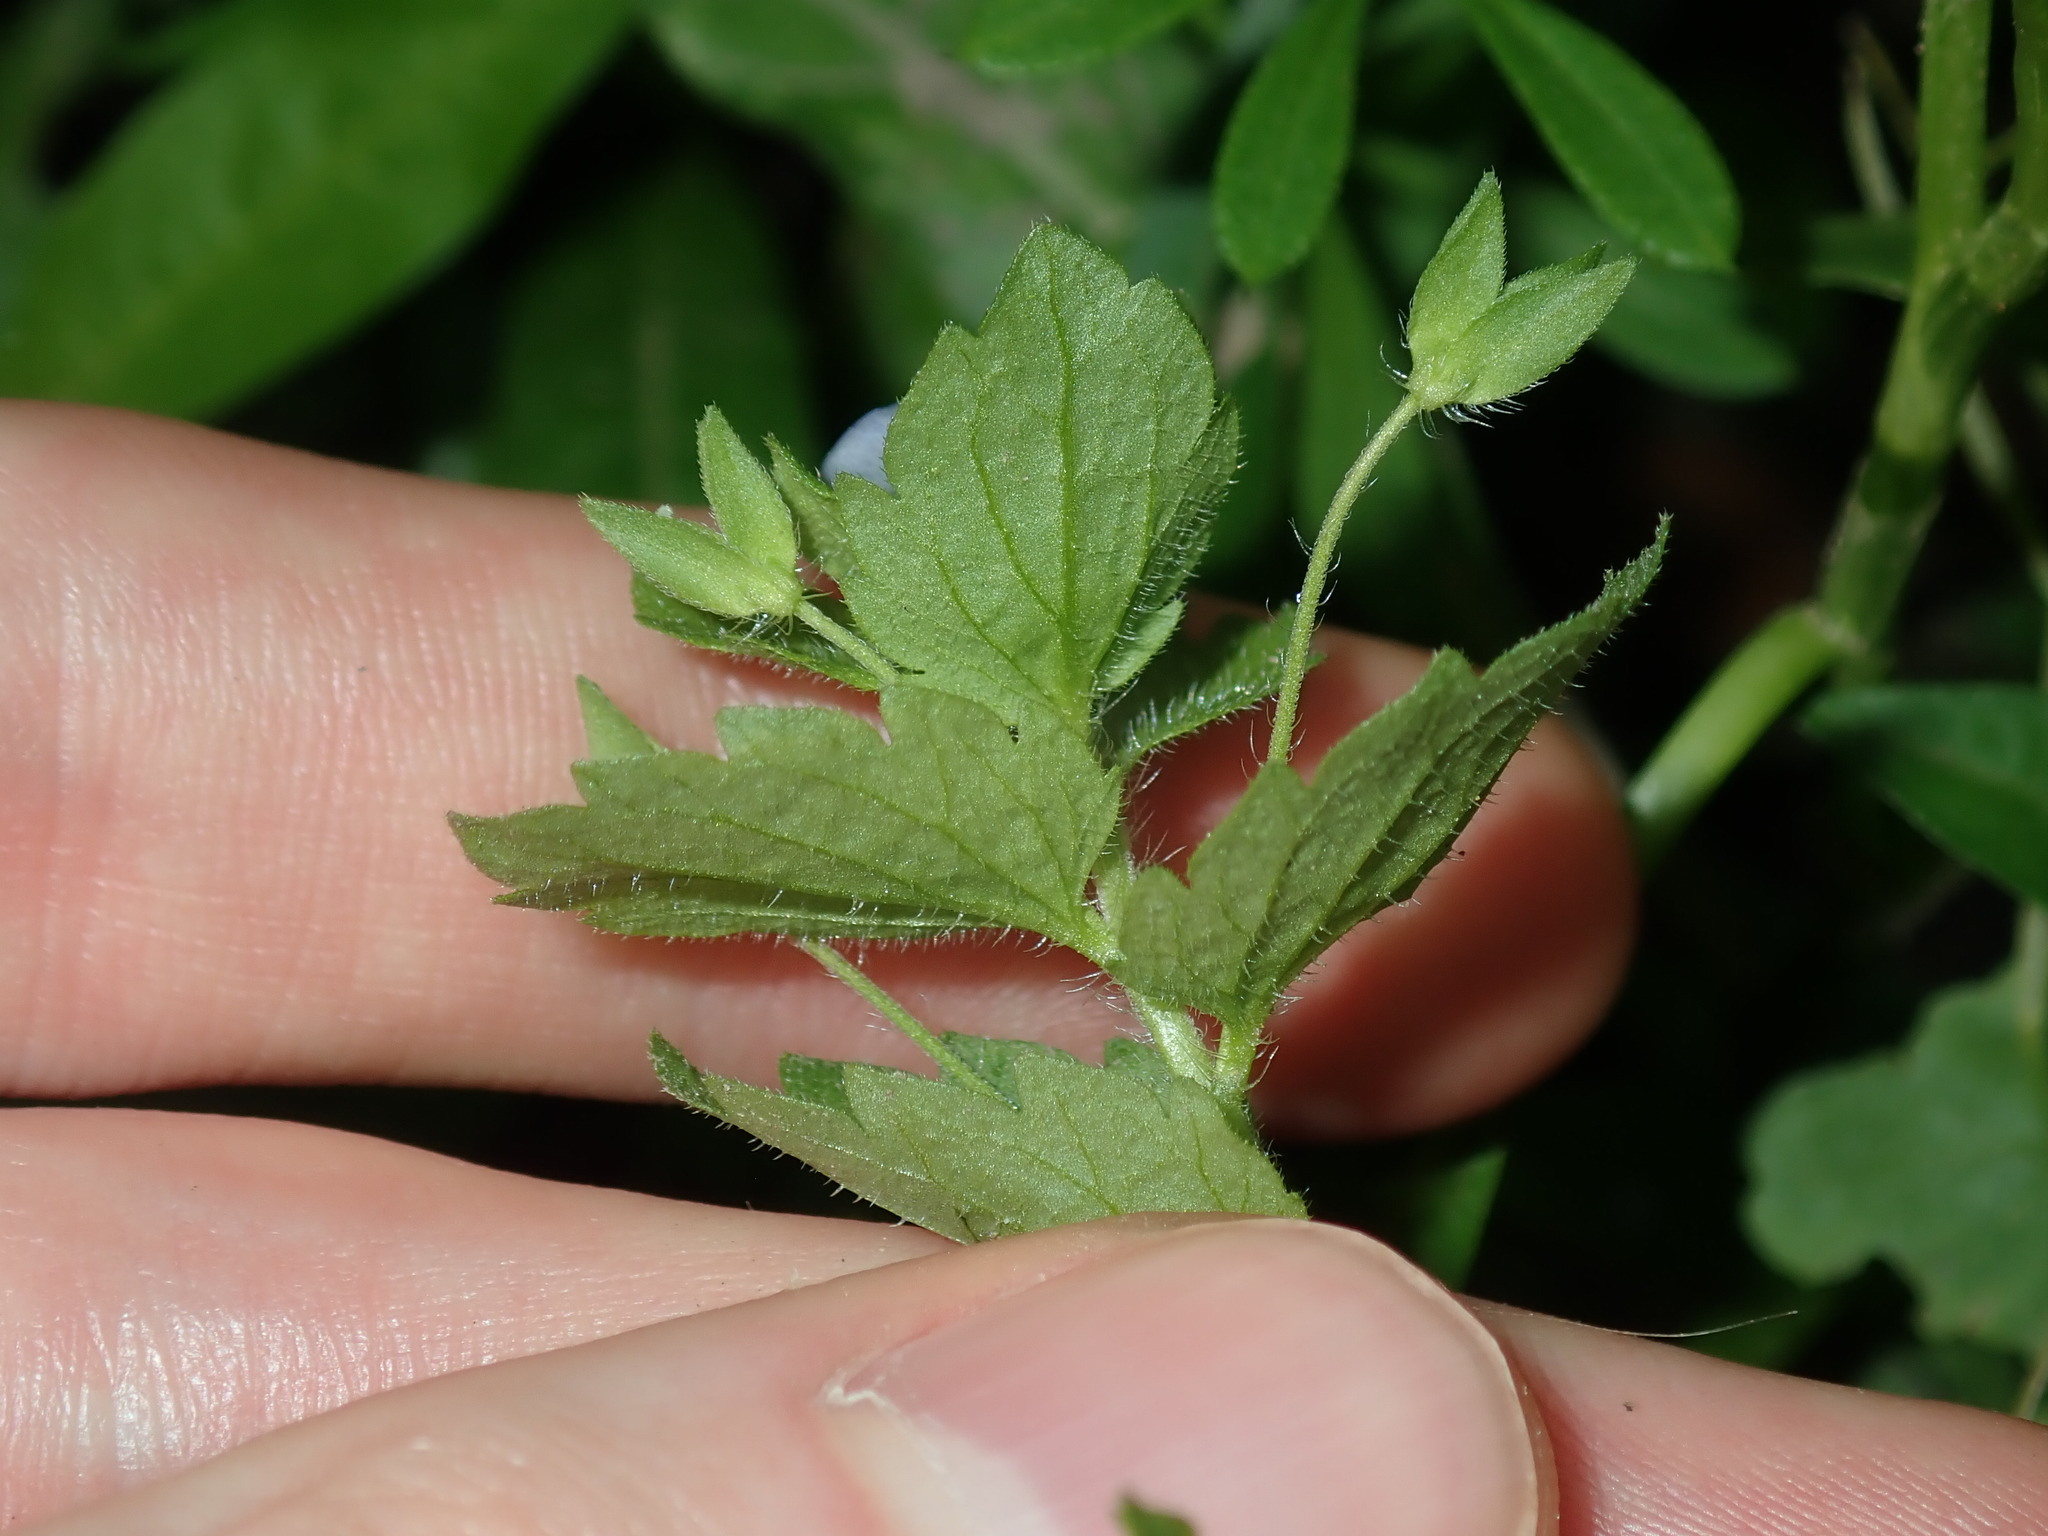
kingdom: Plantae
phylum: Tracheophyta
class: Magnoliopsida
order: Lamiales
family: Plantaginaceae
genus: Veronica
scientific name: Veronica persica
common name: Common field-speedwell
